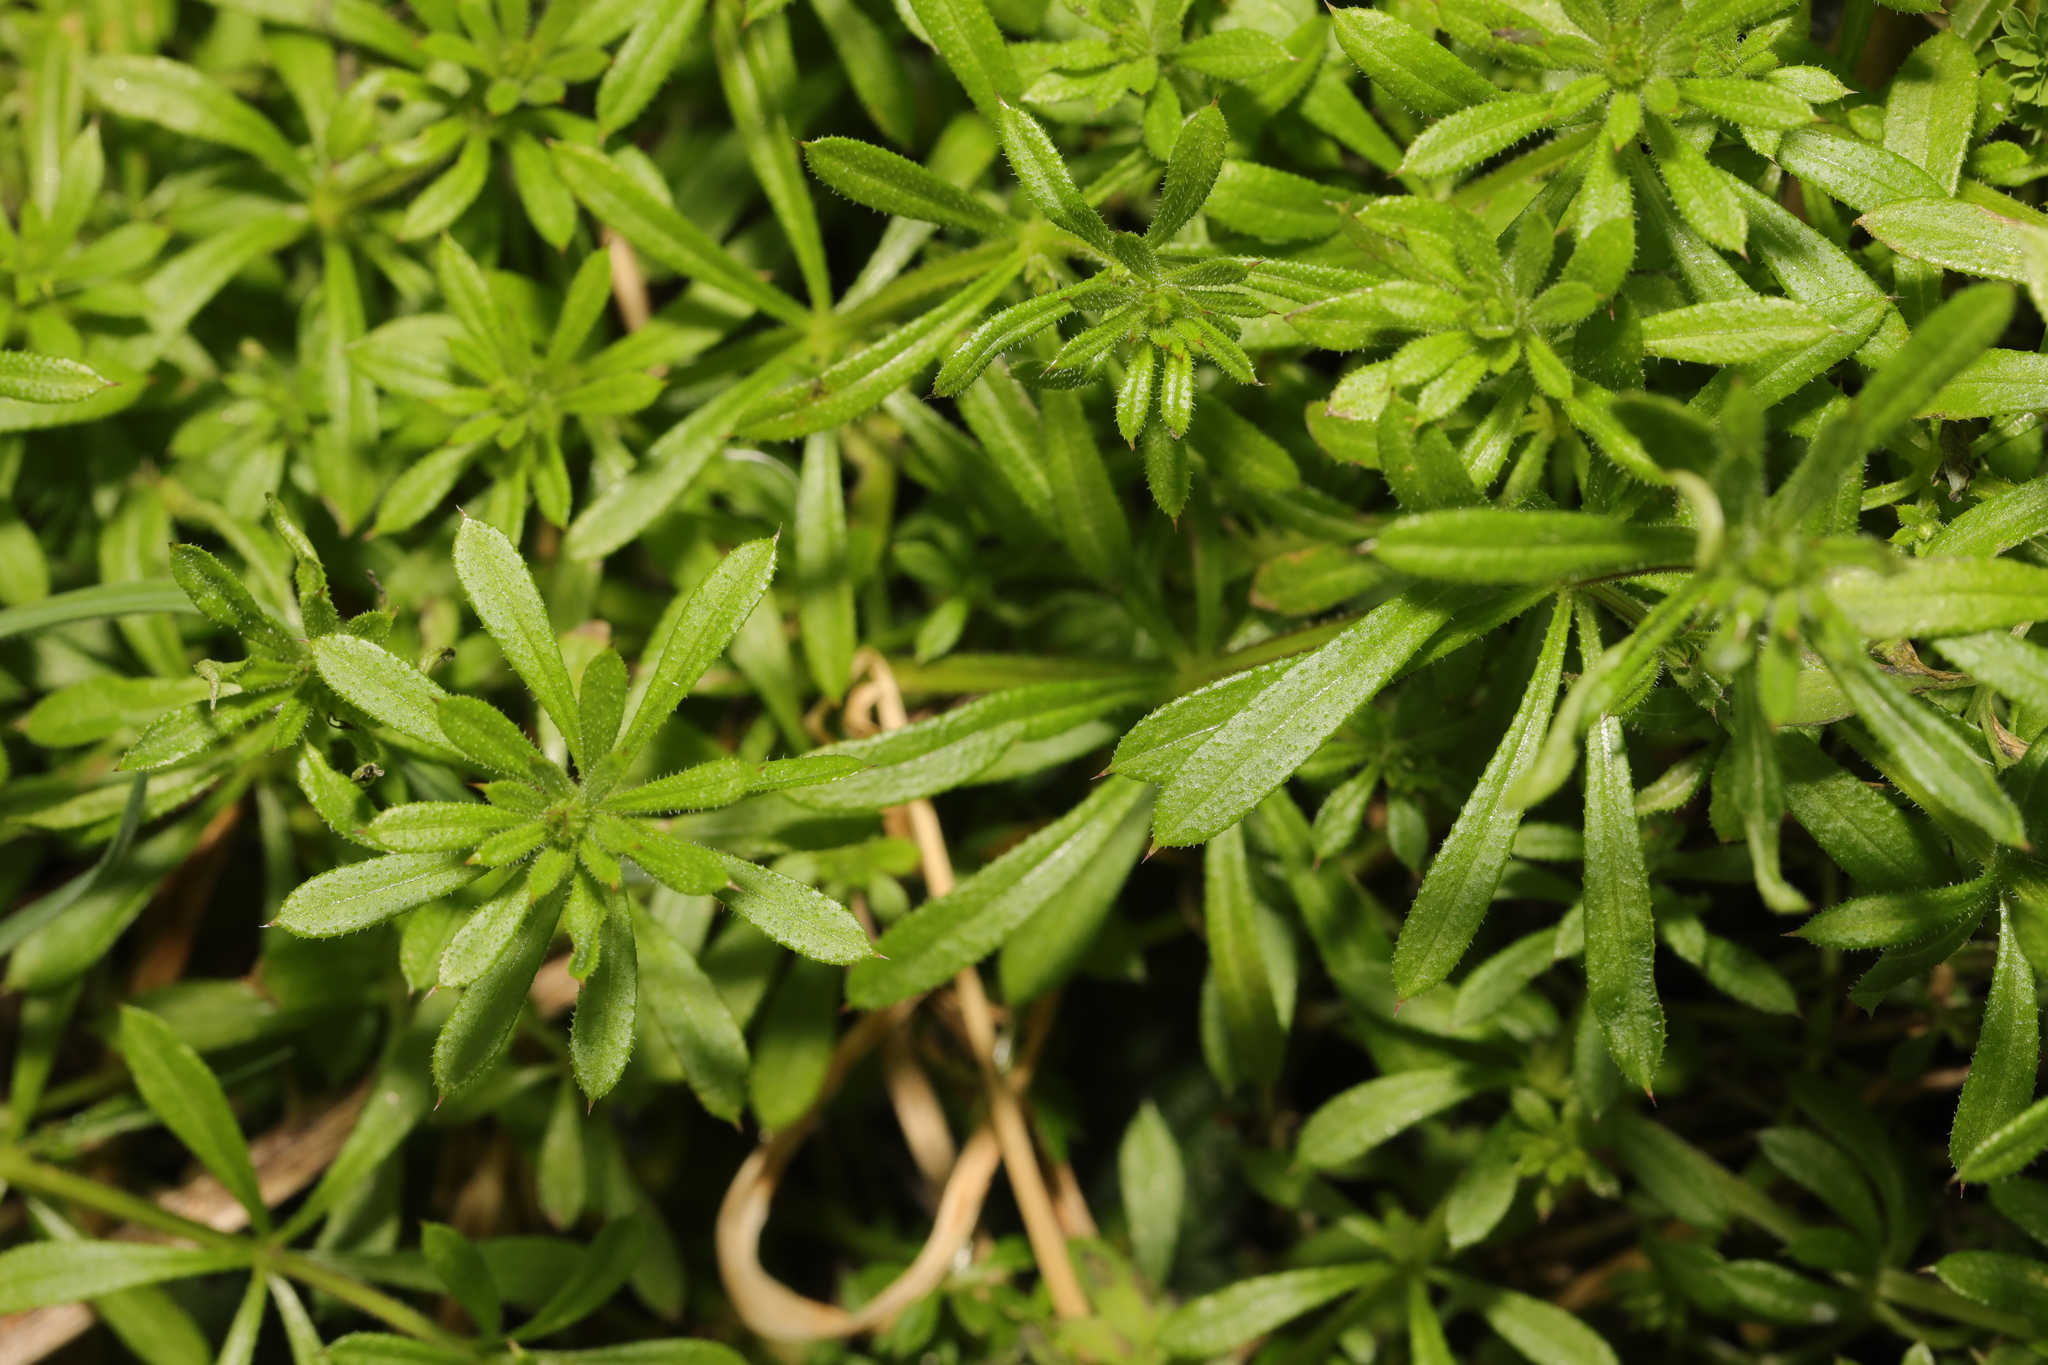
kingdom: Plantae
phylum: Tracheophyta
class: Magnoliopsida
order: Gentianales
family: Rubiaceae
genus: Galium
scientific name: Galium aparine
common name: Cleavers
